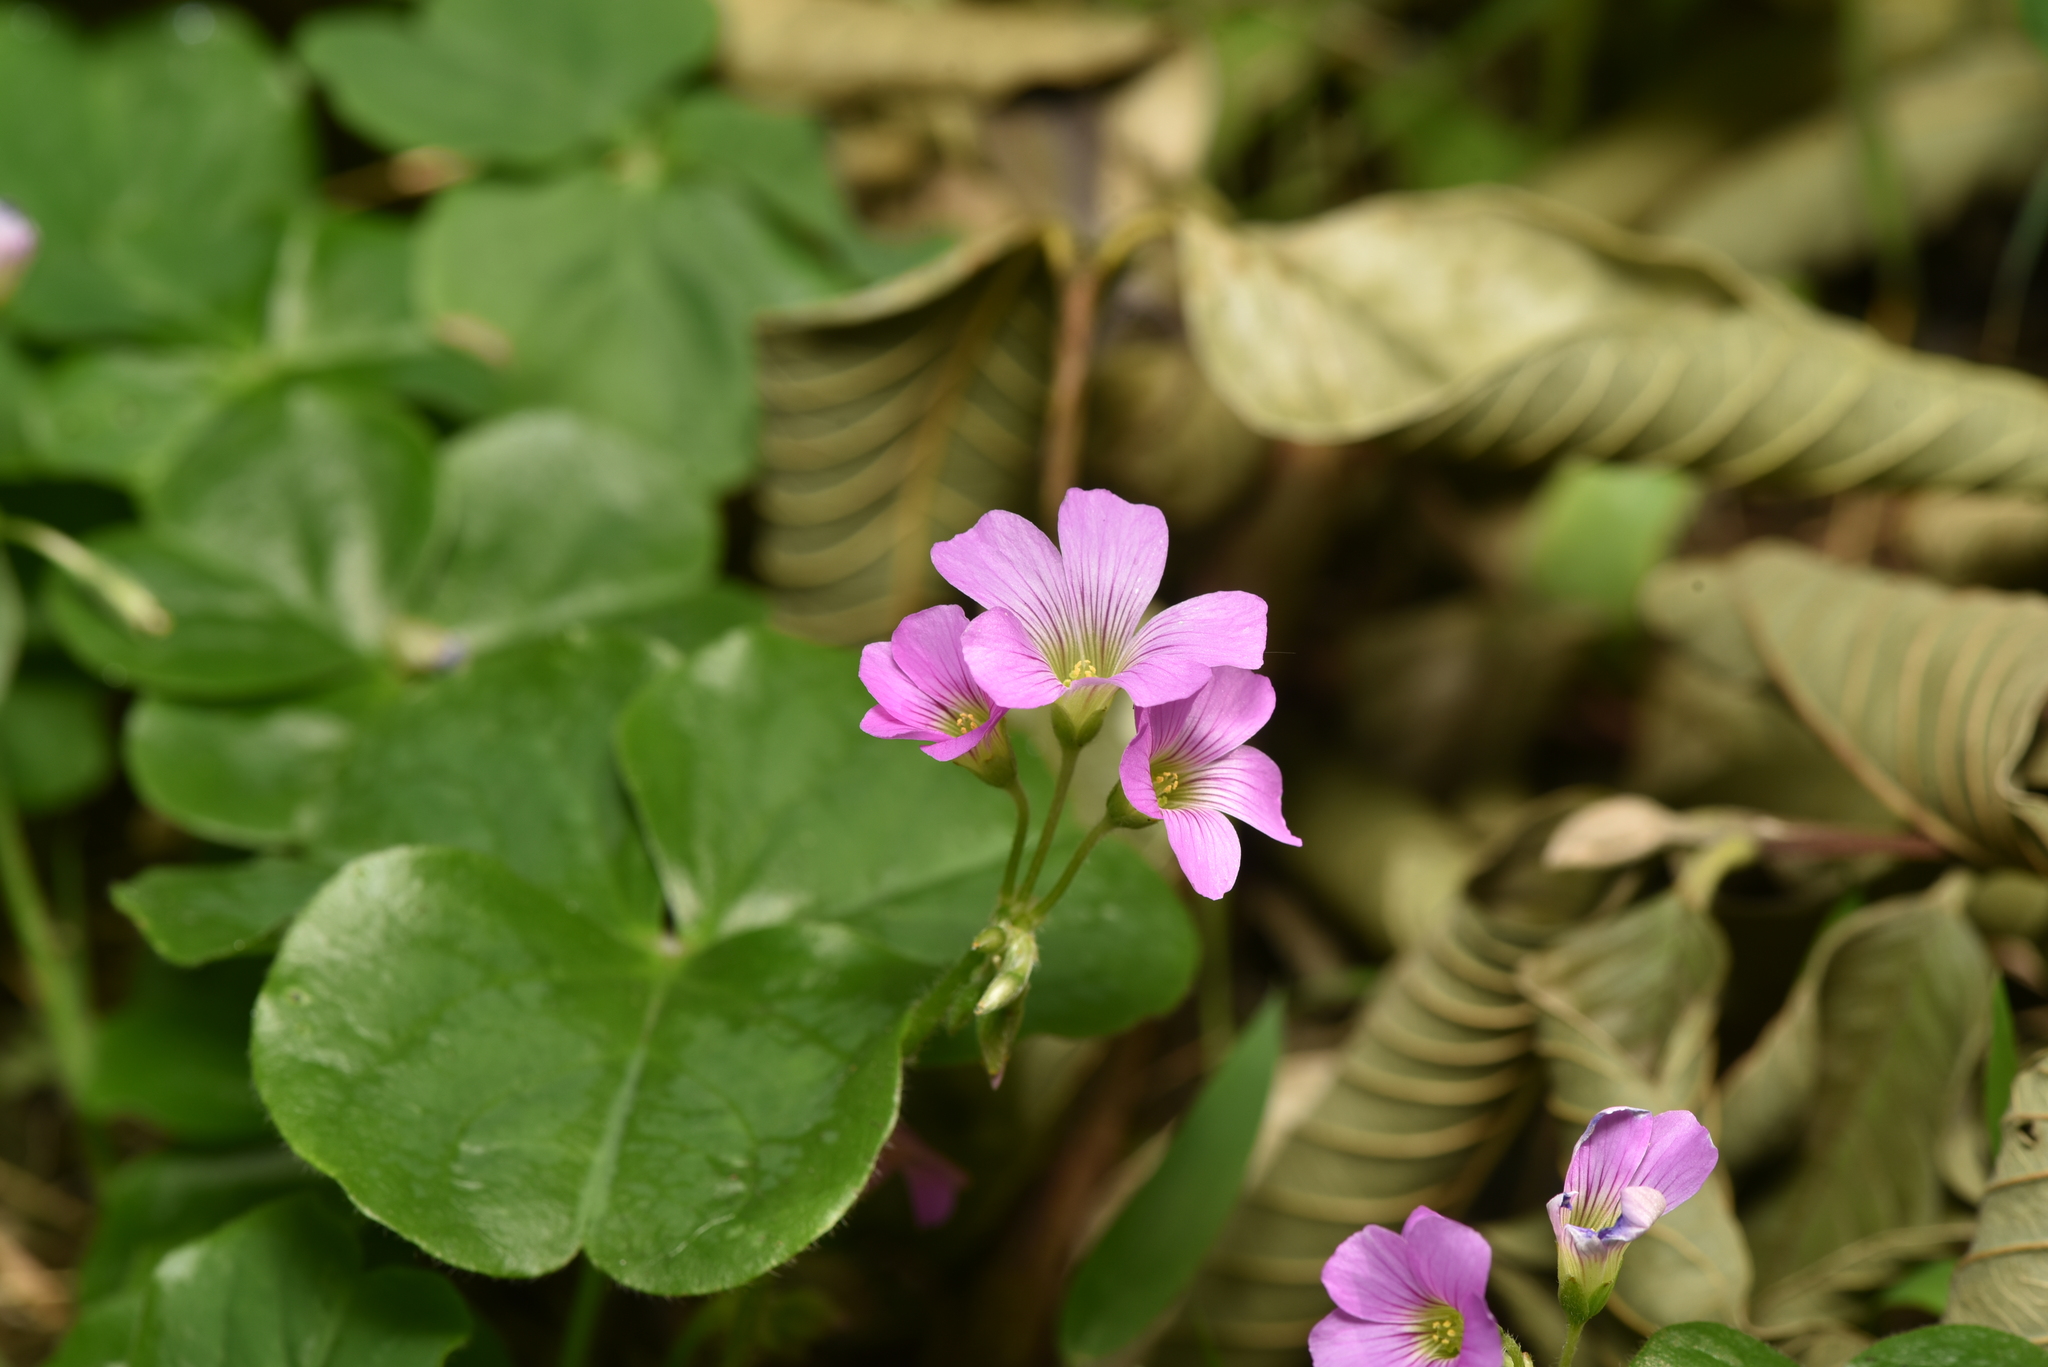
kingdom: Plantae
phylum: Tracheophyta
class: Magnoliopsida
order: Oxalidales
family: Oxalidaceae
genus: Oxalis
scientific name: Oxalis debilis
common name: Large-flowered pink-sorrel
